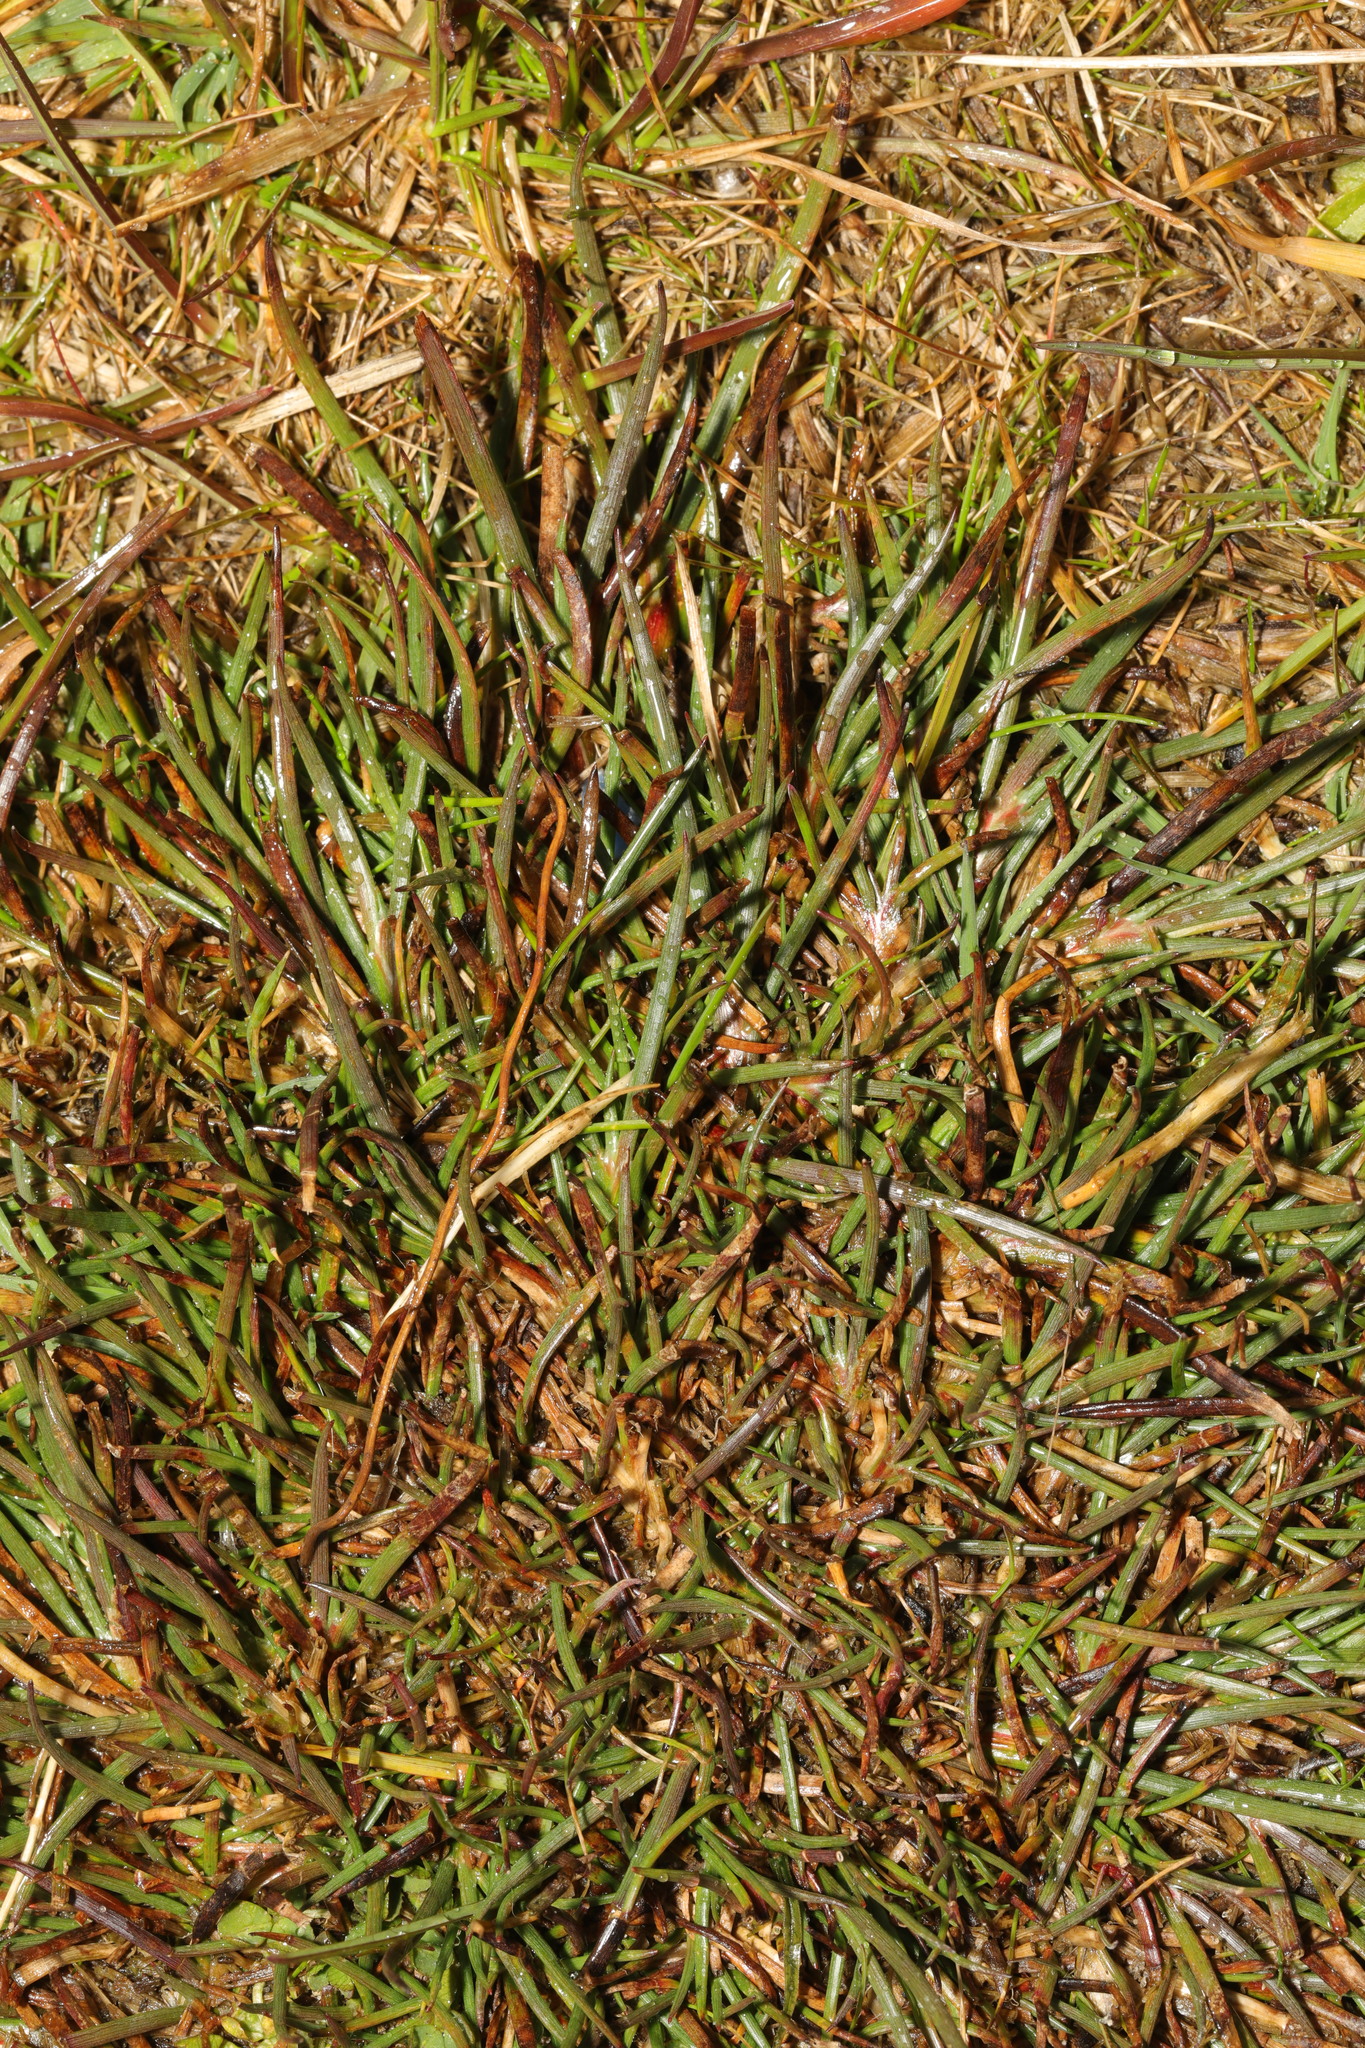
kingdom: Plantae
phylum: Tracheophyta
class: Liliopsida
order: Poales
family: Poaceae
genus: Agrostis
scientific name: Agrostis stolonifera
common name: Creeping bentgrass
